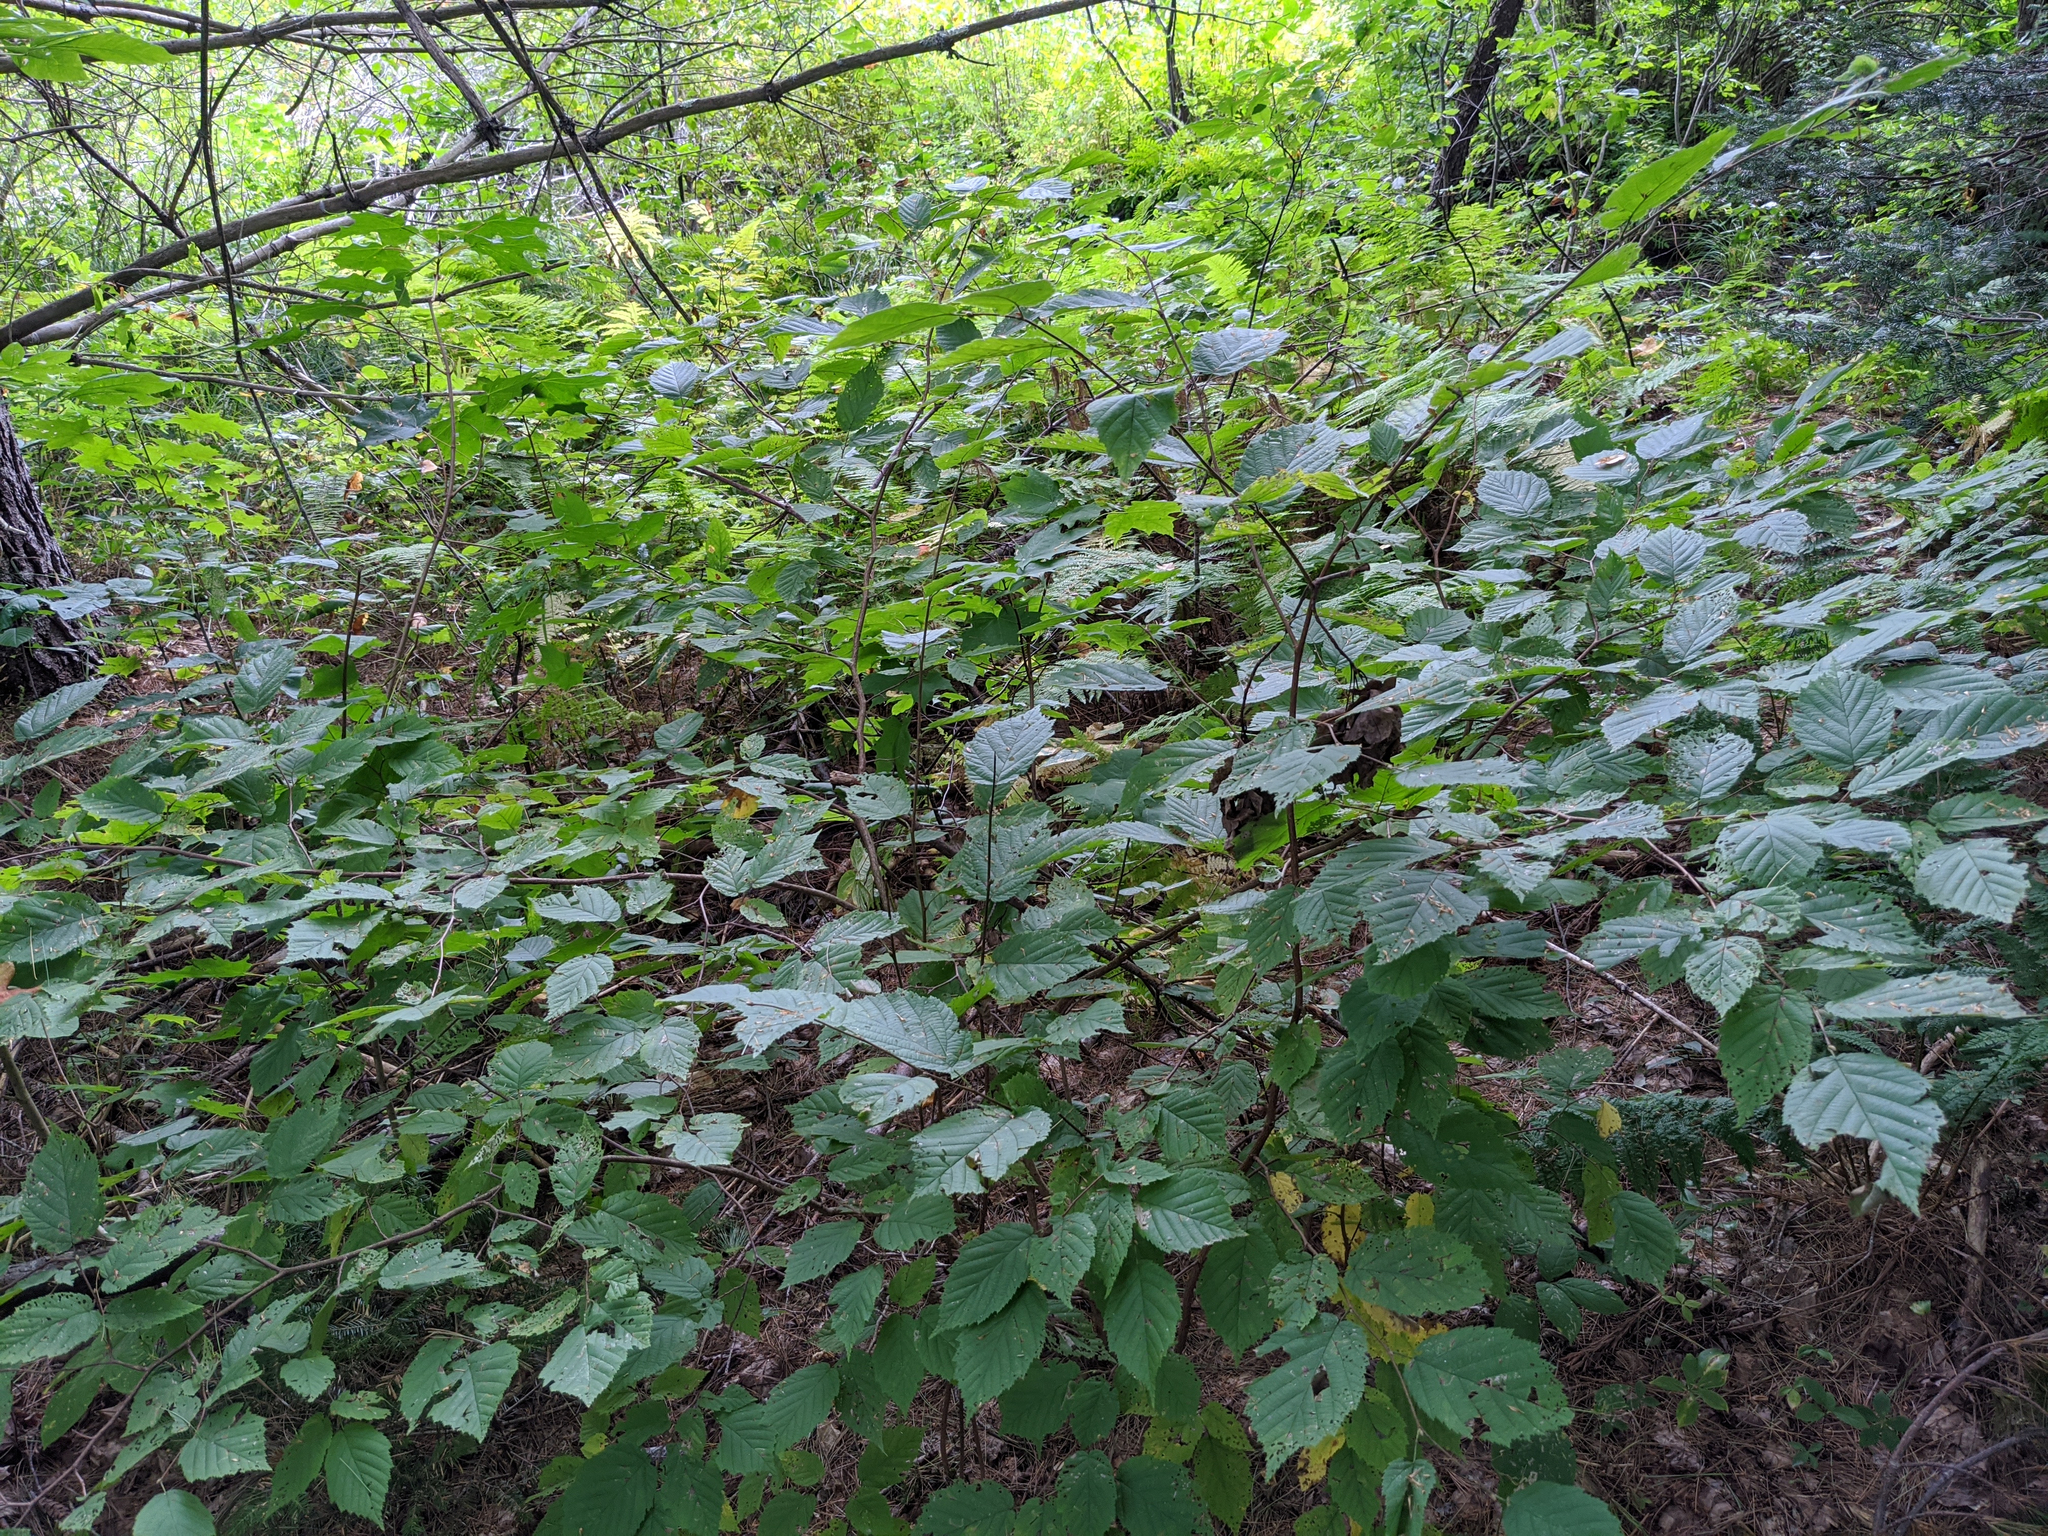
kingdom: Plantae
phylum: Tracheophyta
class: Magnoliopsida
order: Fagales
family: Betulaceae
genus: Corylus
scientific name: Corylus cornuta
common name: Beaked hazel
